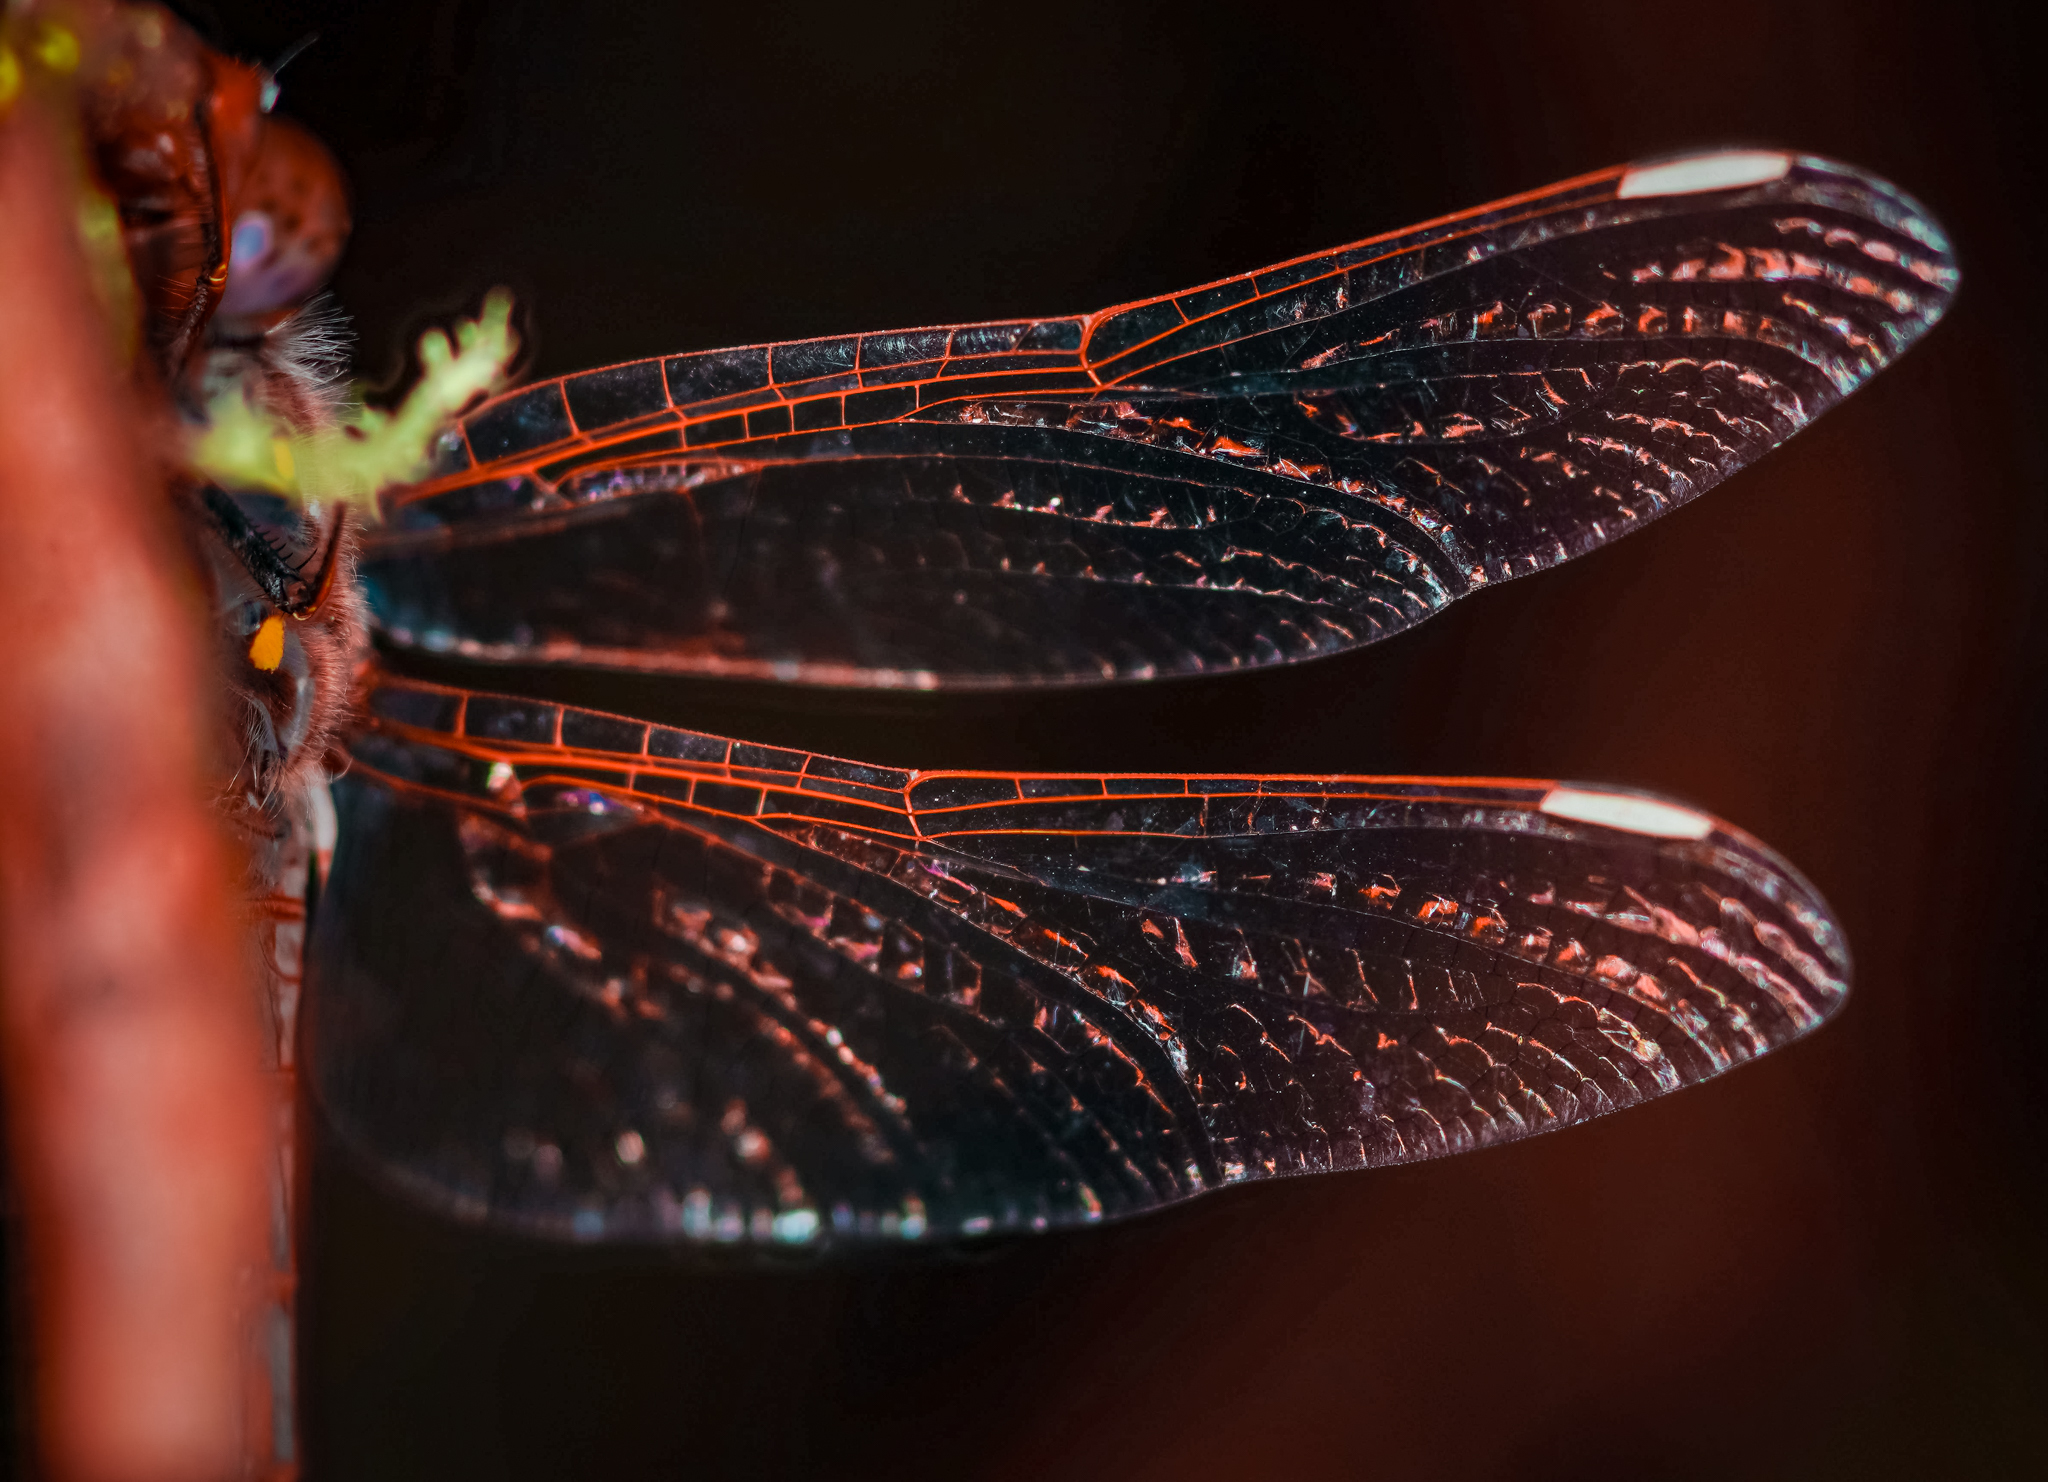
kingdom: Animalia
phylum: Arthropoda
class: Insecta
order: Odonata
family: Libellulidae
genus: Sympetrum
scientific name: Sympetrum corruptum
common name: Variegated meadowhawk
